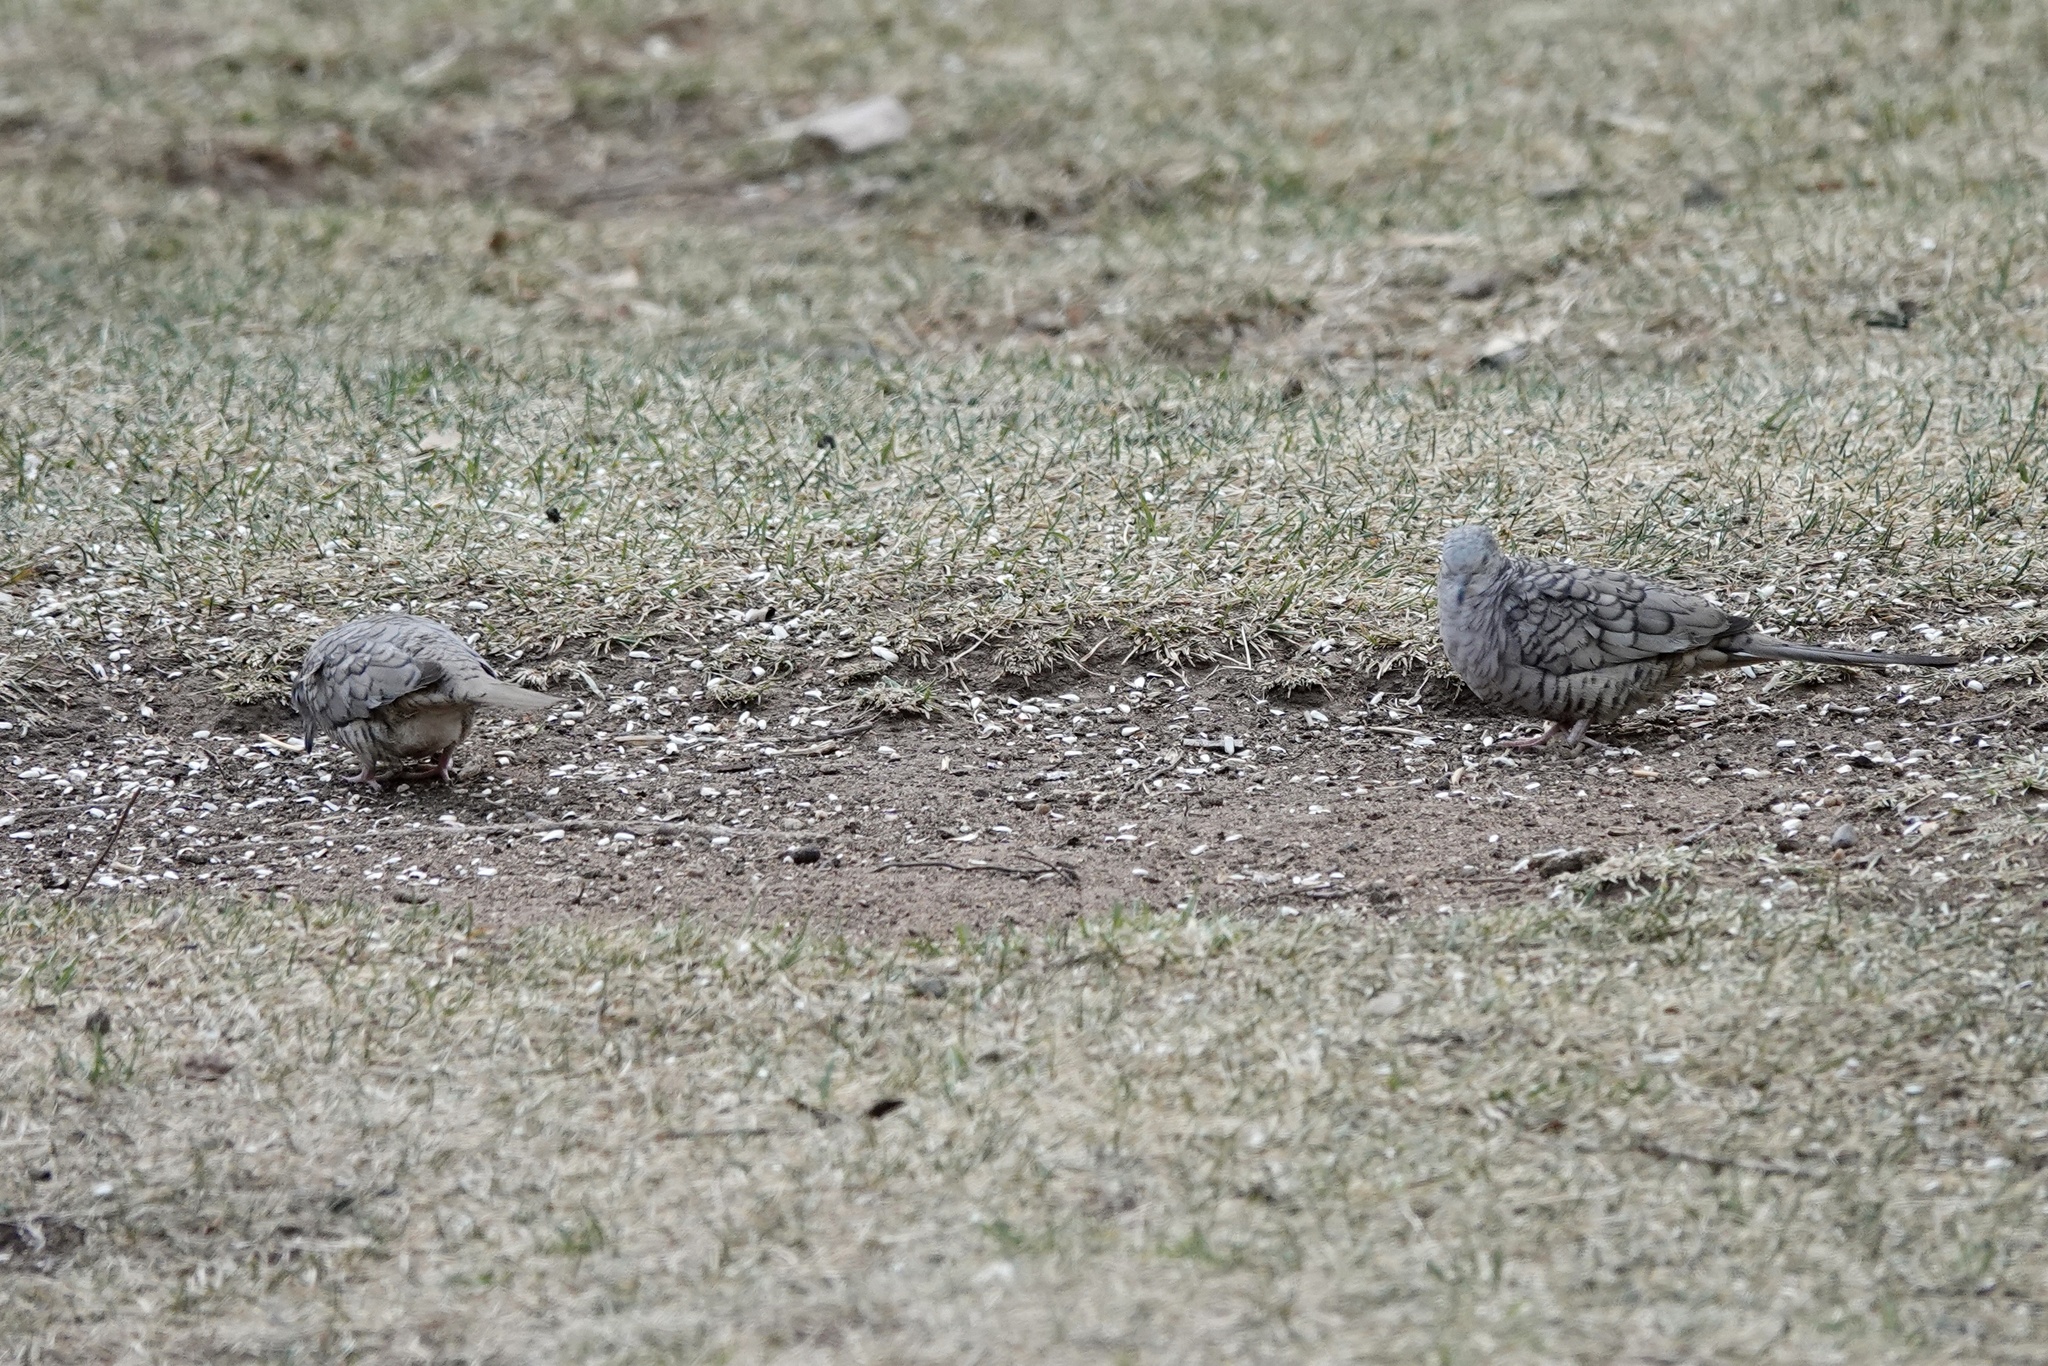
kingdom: Animalia
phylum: Chordata
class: Aves
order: Columbiformes
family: Columbidae
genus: Columbina
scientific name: Columbina inca
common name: Inca dove
